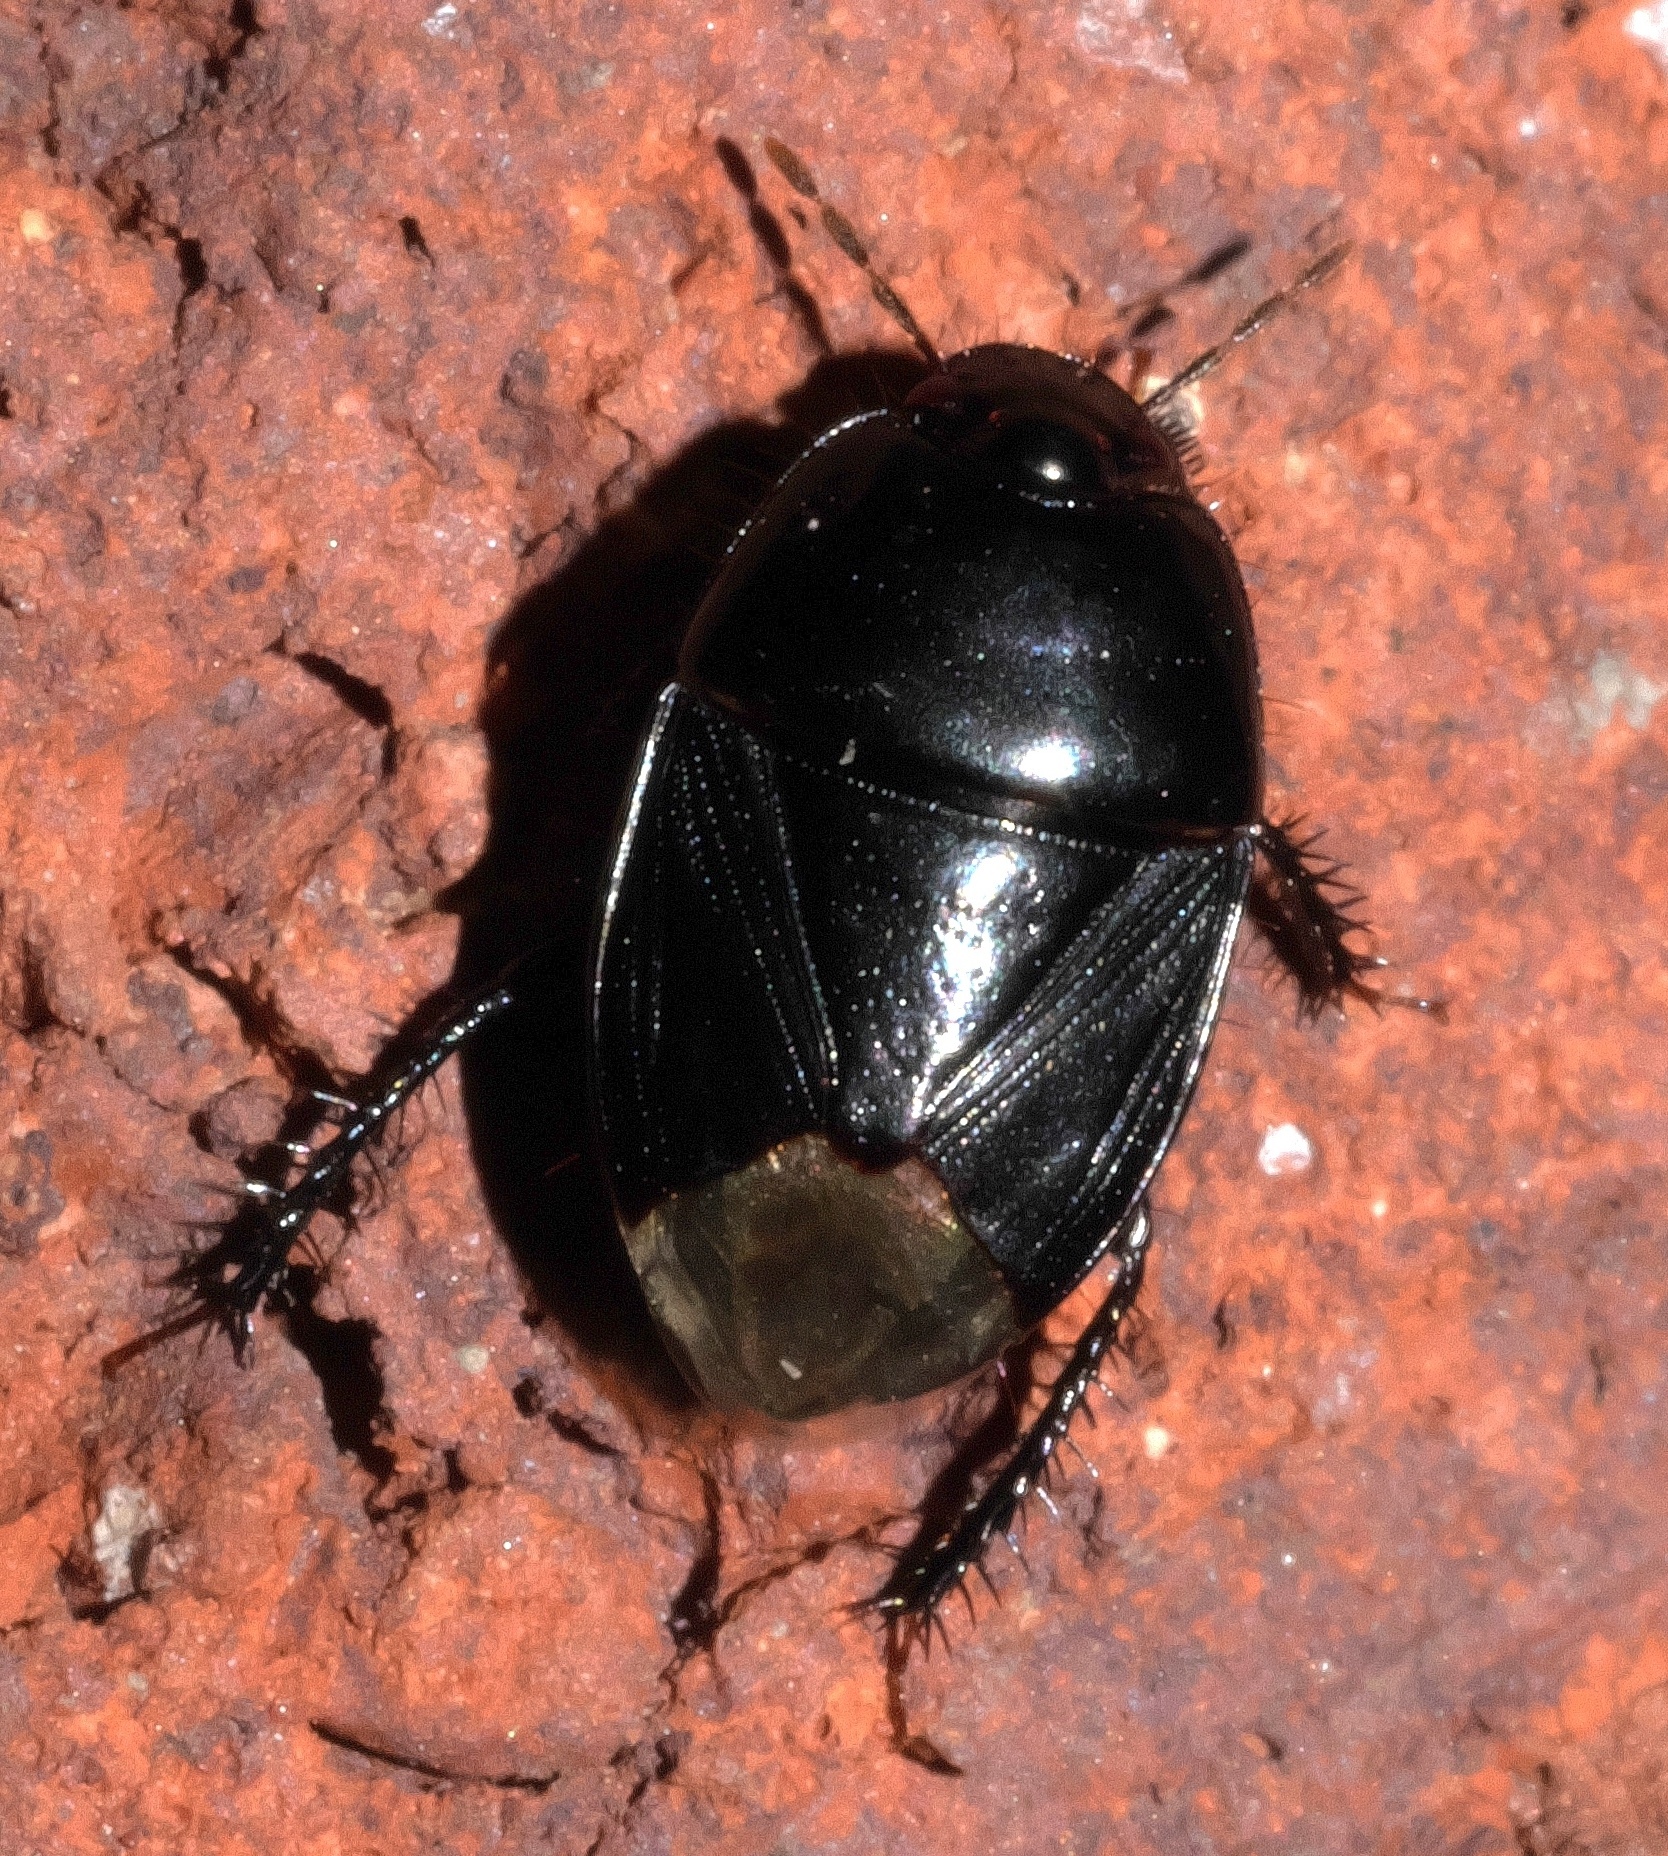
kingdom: Animalia
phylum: Arthropoda
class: Insecta
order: Hemiptera
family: Cydnidae
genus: Pangaeus
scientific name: Pangaeus bilineatus
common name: Burrower bug
